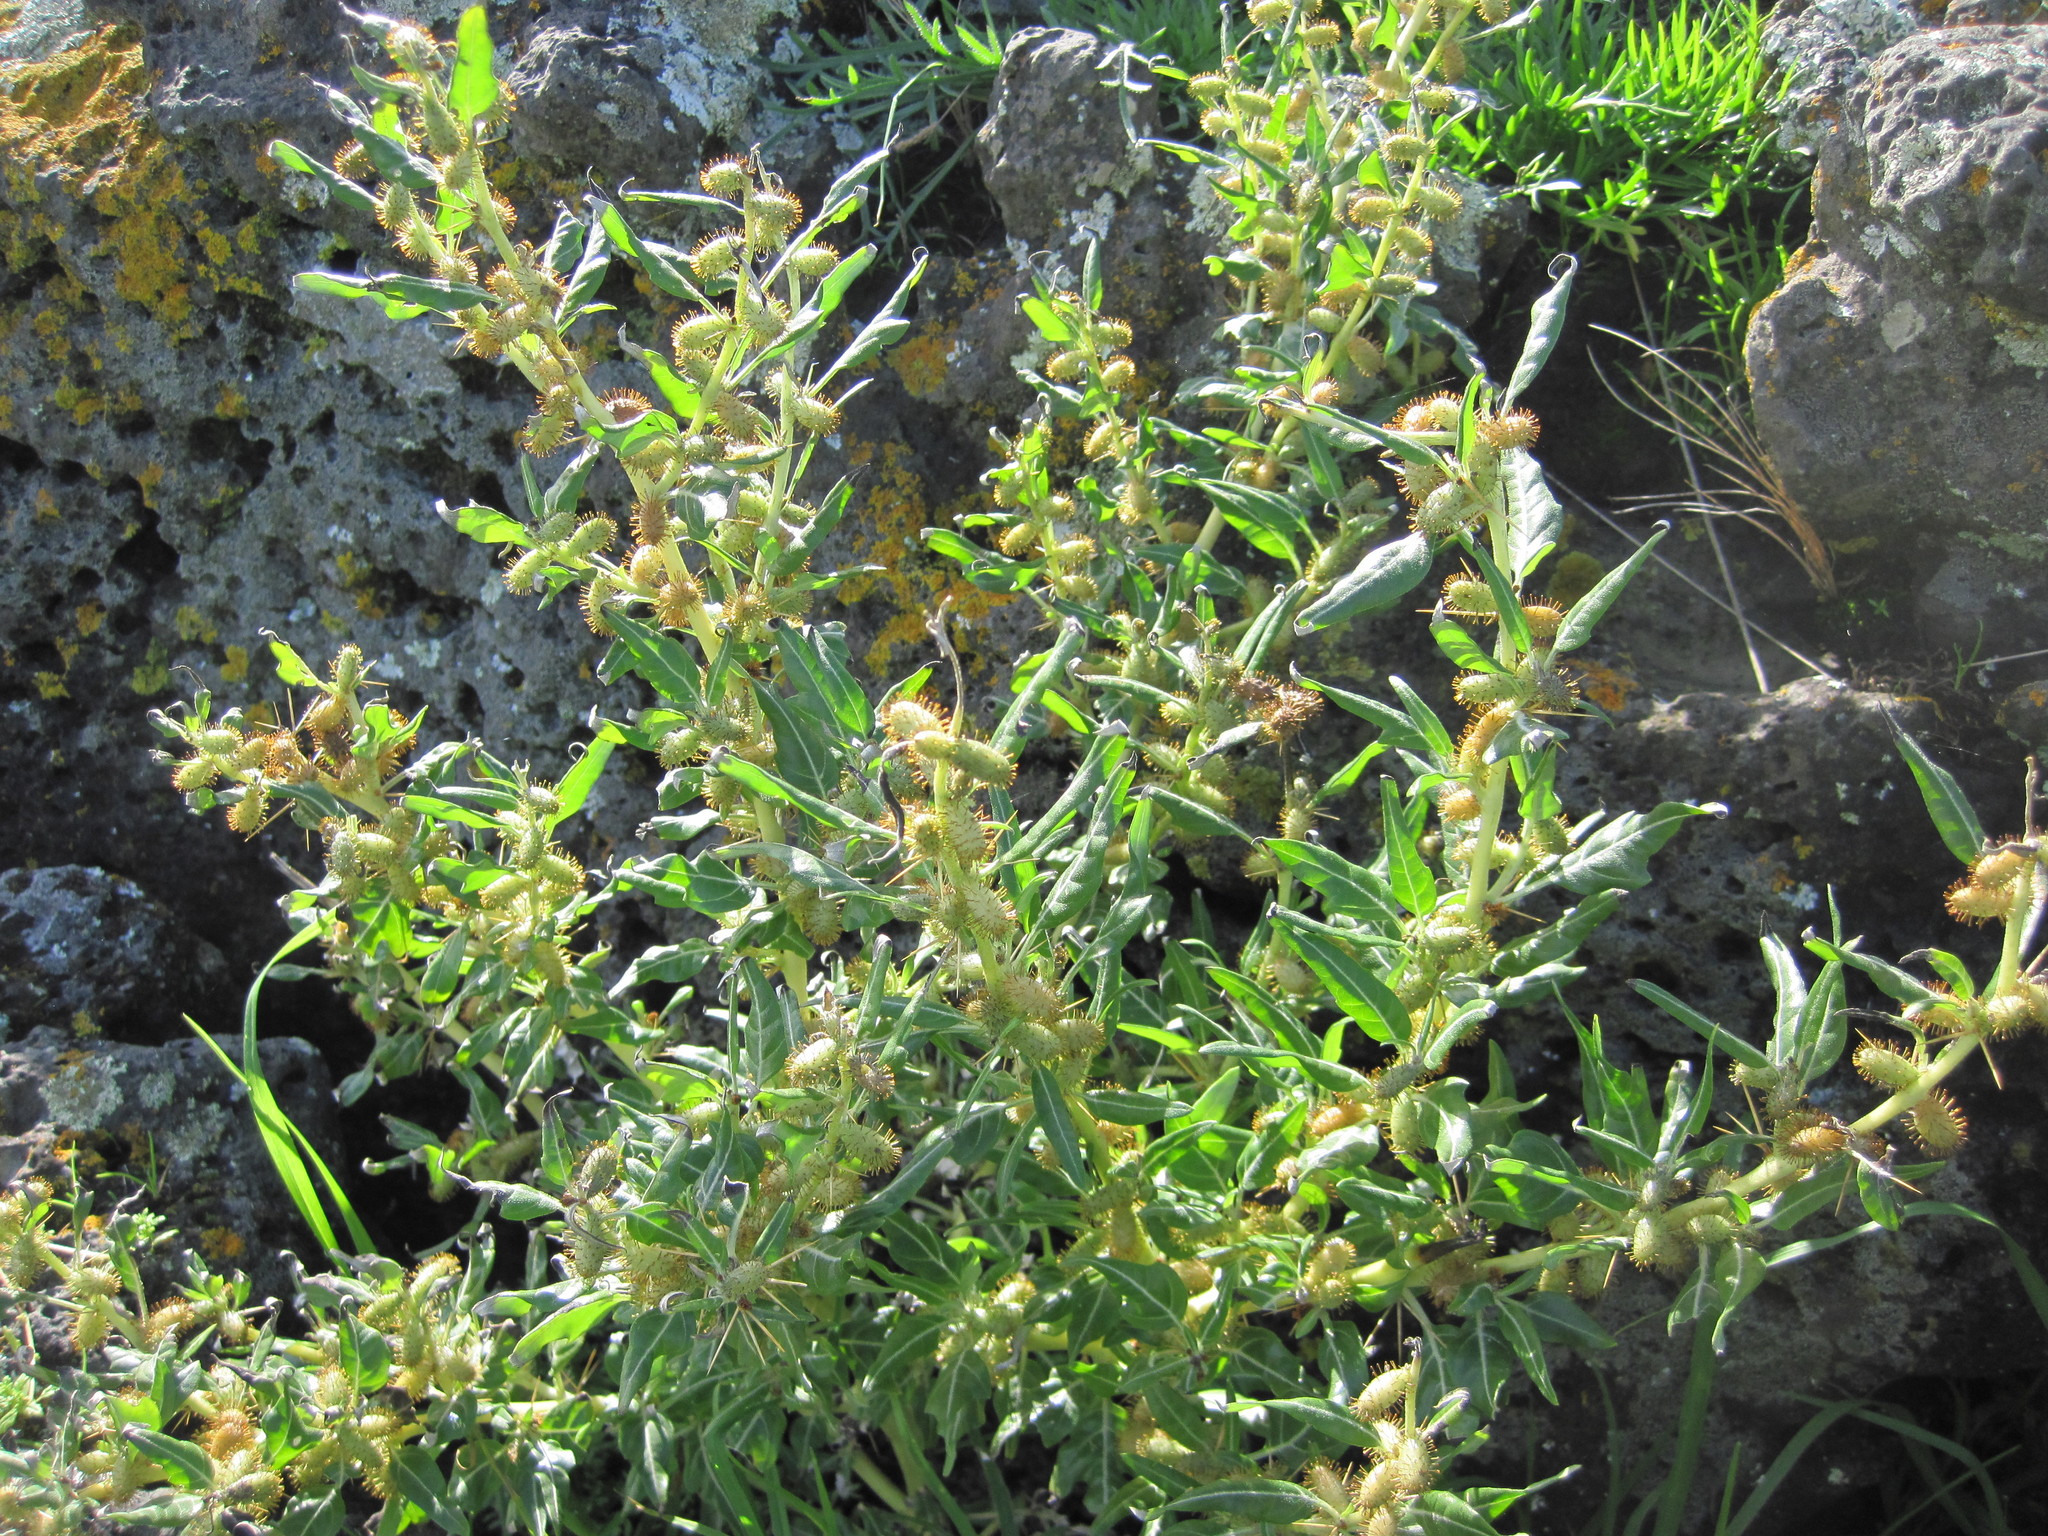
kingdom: Plantae
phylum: Tracheophyta
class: Magnoliopsida
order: Asterales
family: Asteraceae
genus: Xanthium
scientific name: Xanthium spinosum
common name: Spiny cocklebur
